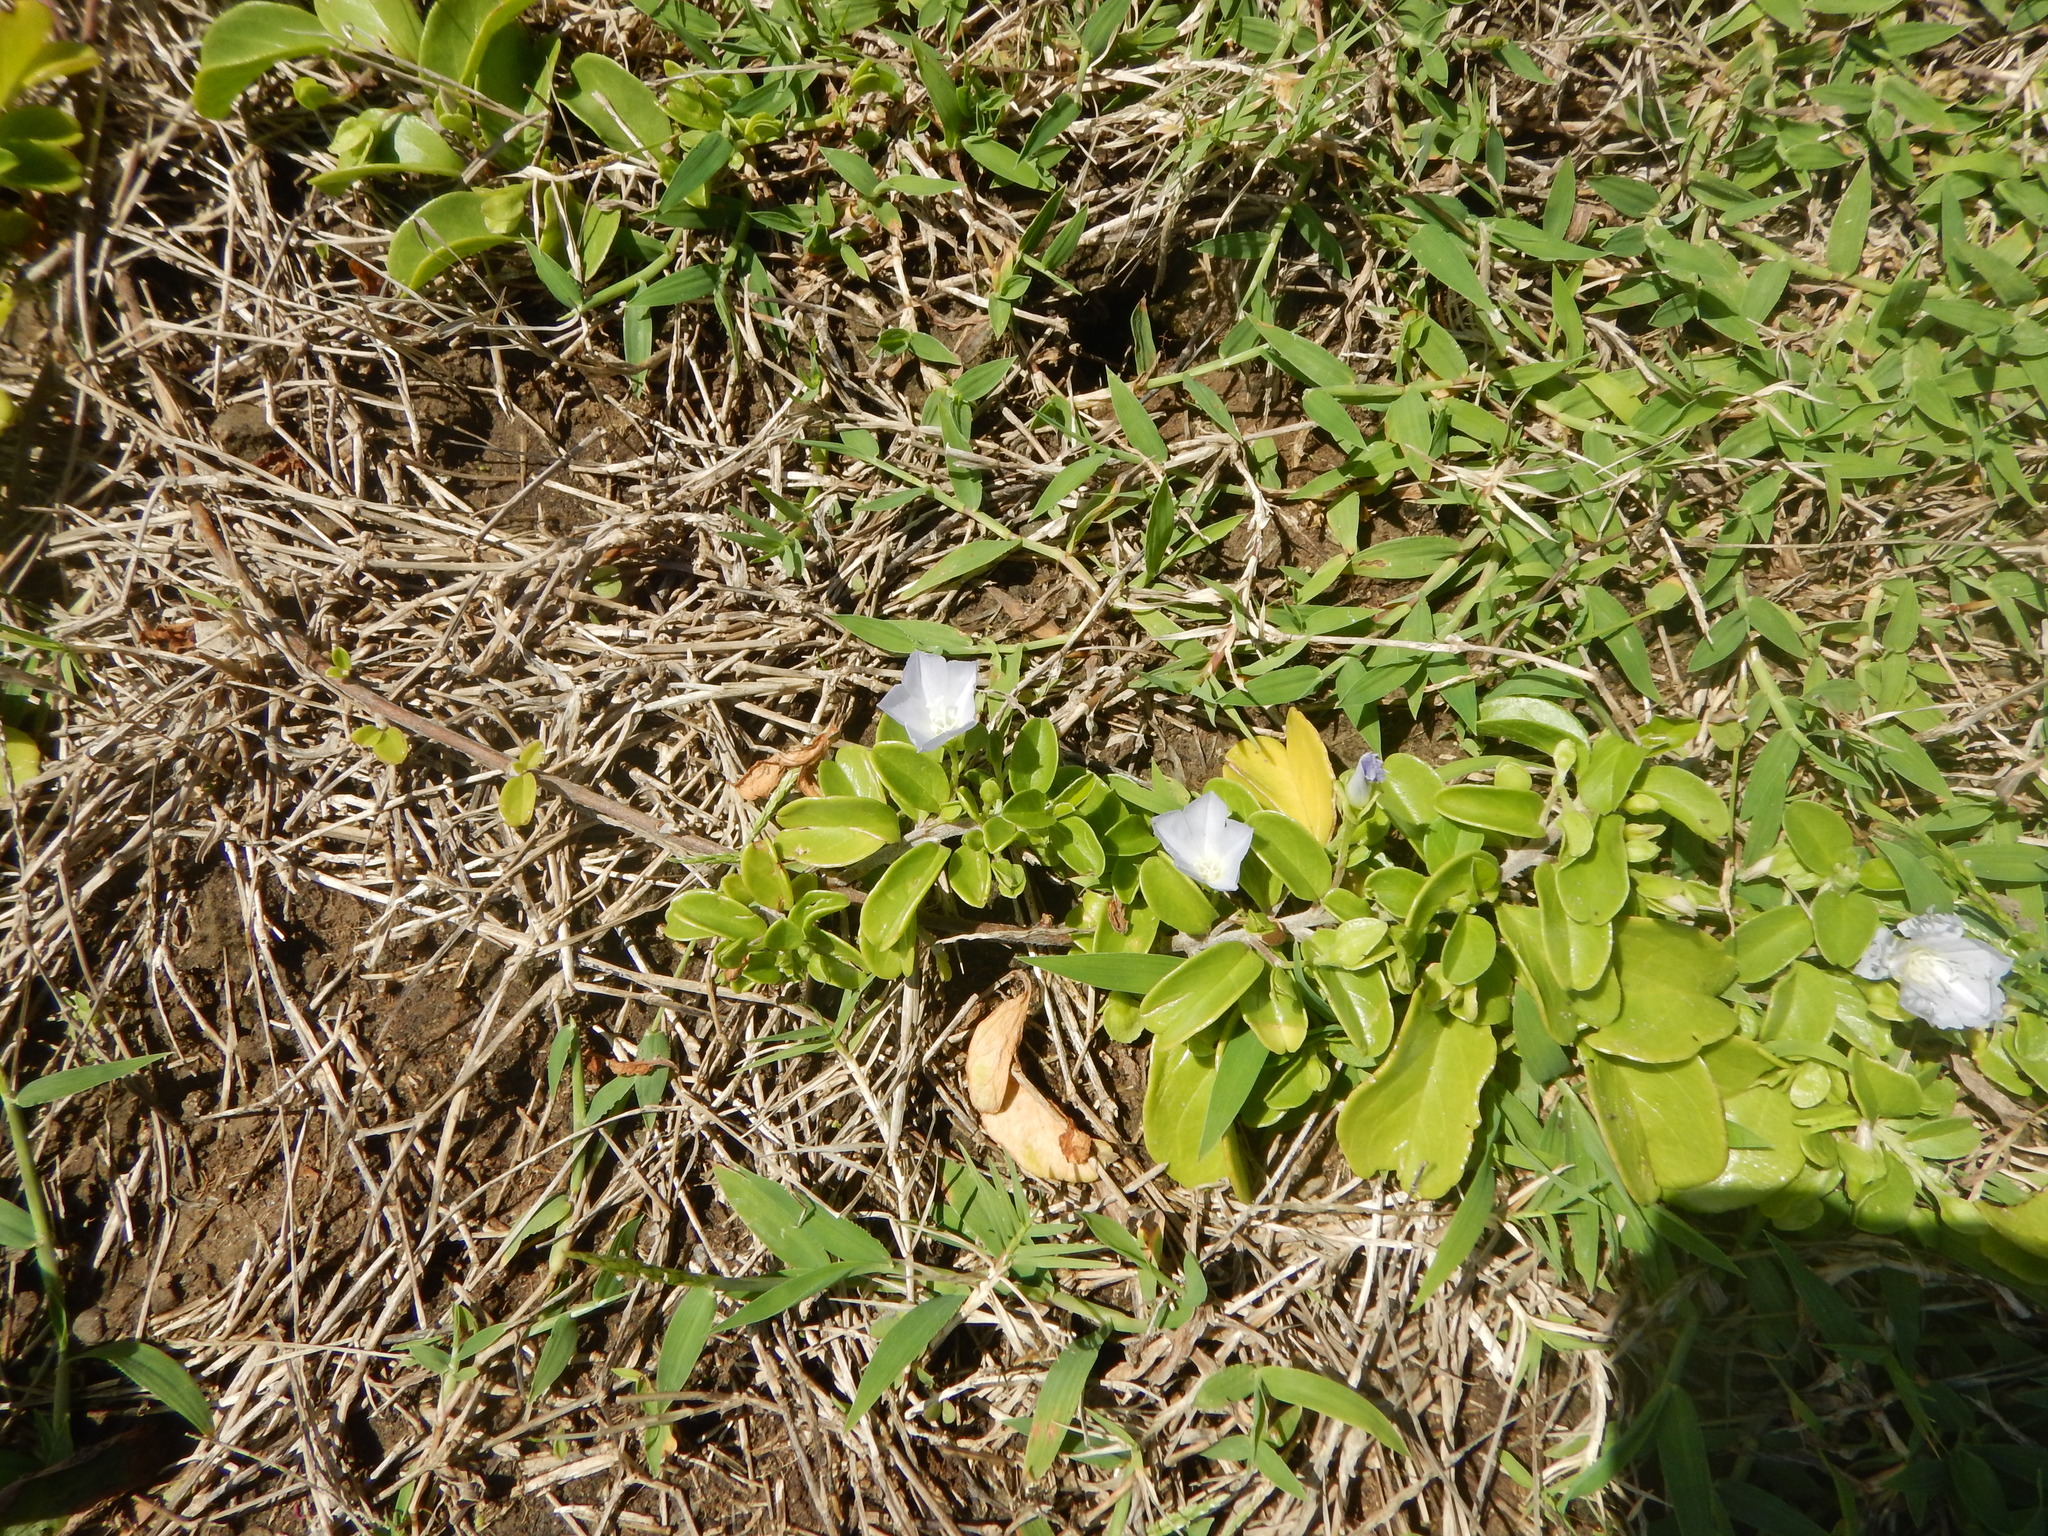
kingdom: Plantae
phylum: Tracheophyta
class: Magnoliopsida
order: Solanales
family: Convolvulaceae
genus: Jacquemontia
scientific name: Jacquemontia sandwicensis
